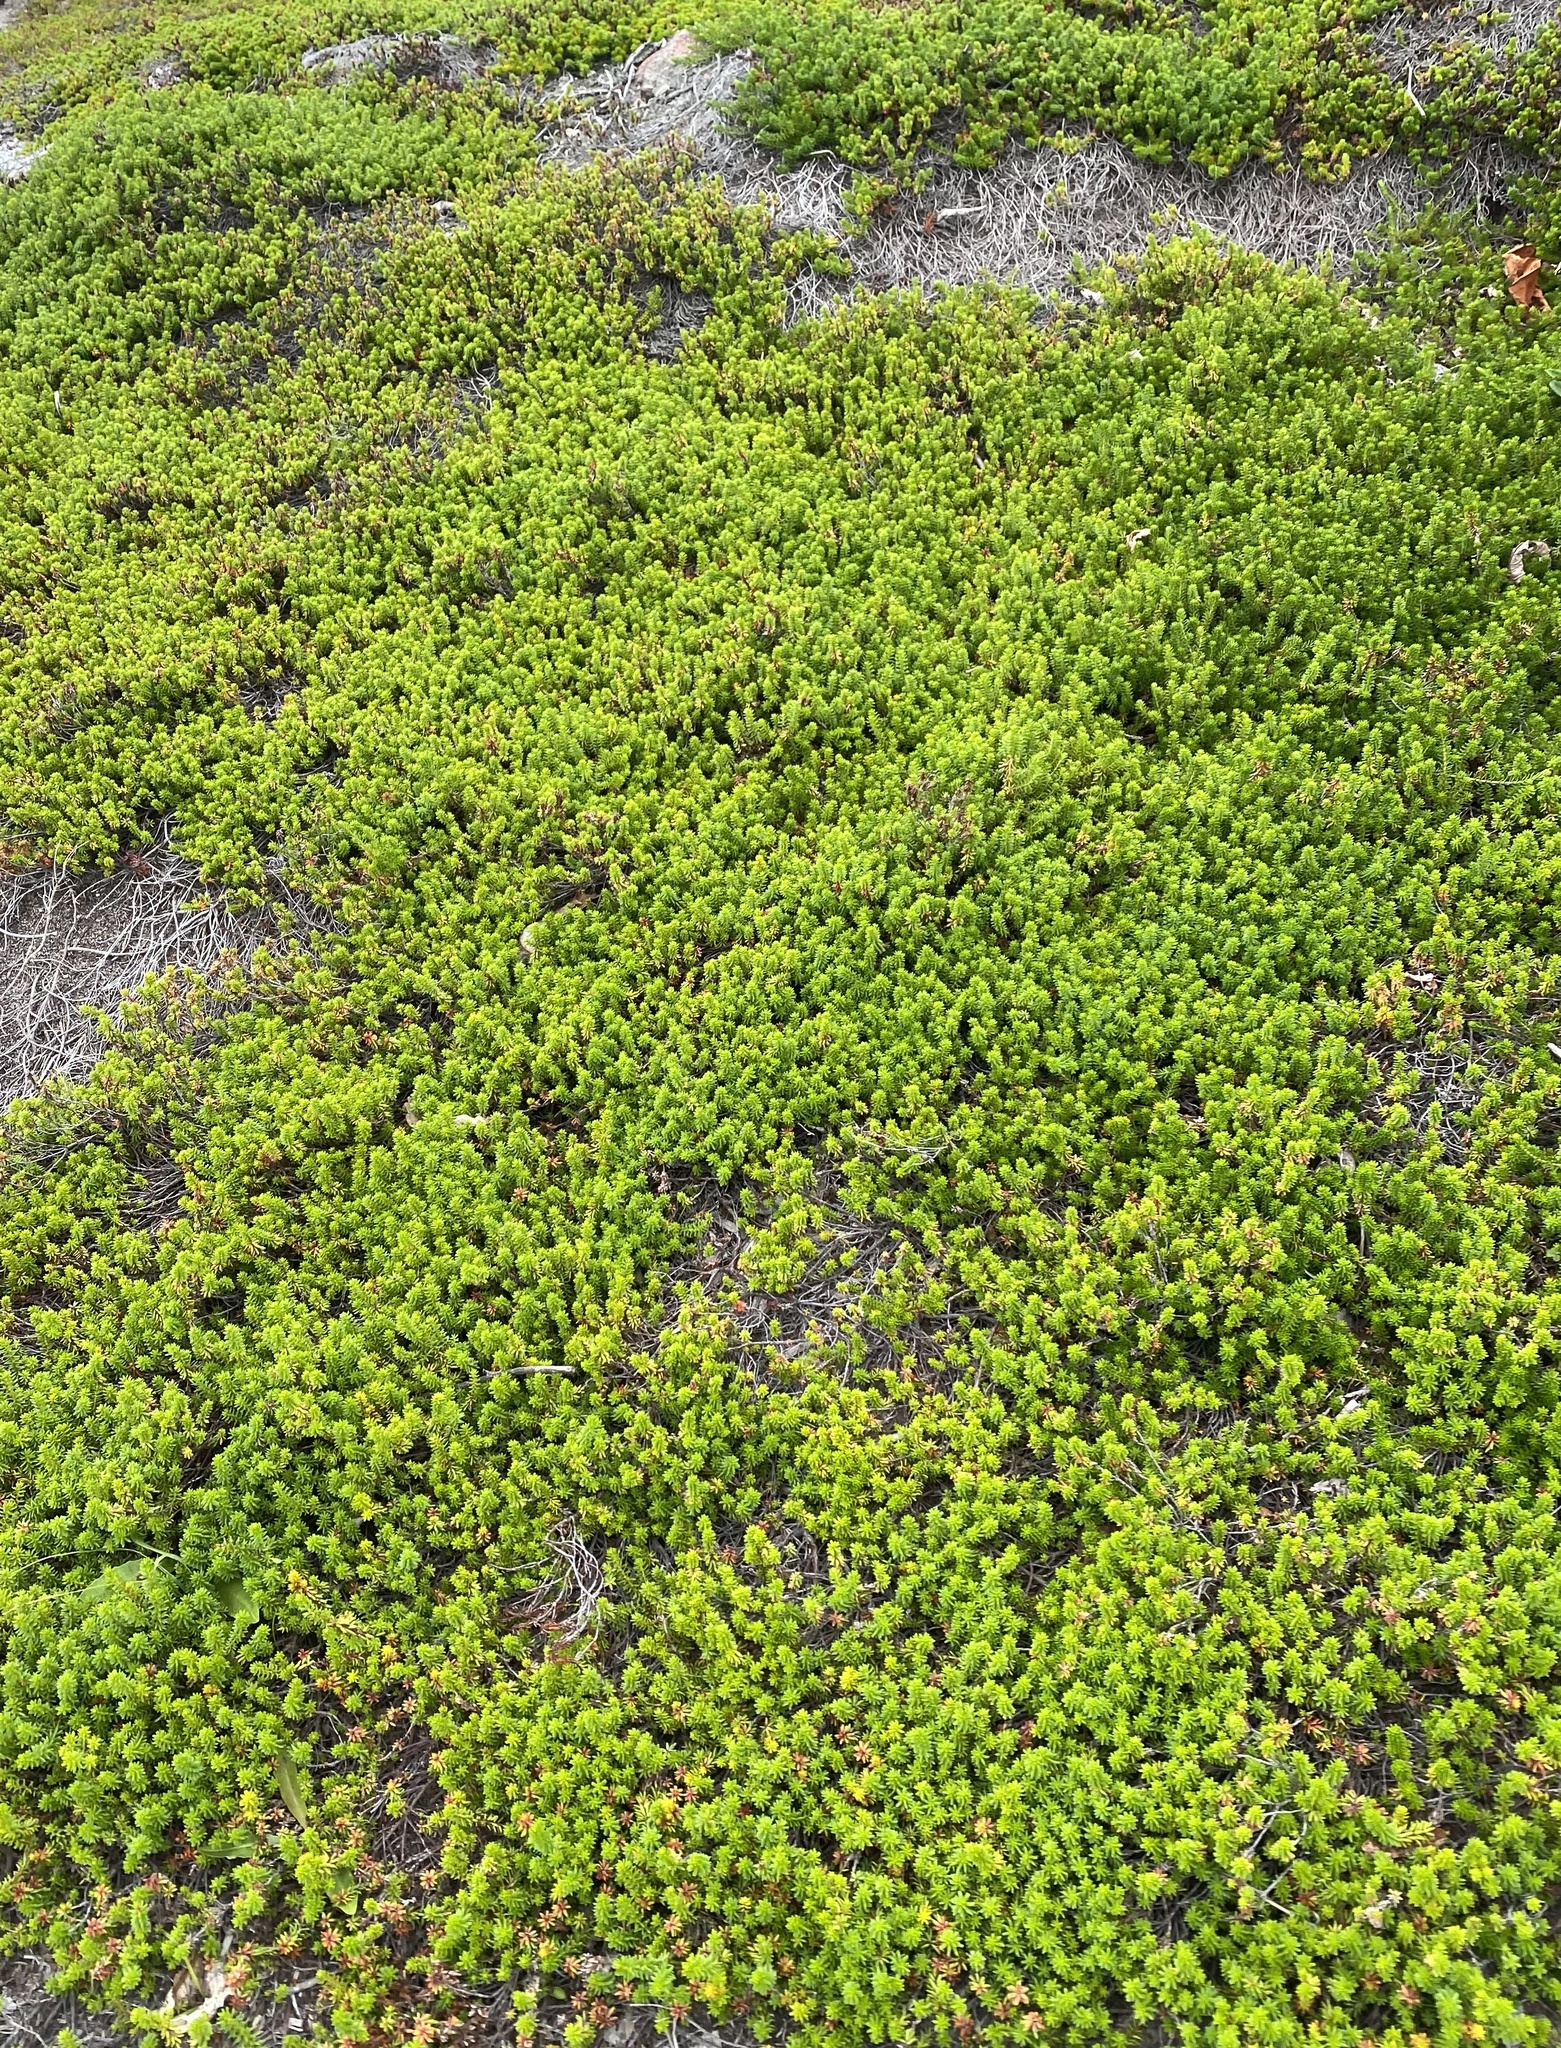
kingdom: Plantae
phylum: Tracheophyta
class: Magnoliopsida
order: Ericales
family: Ericaceae
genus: Empetrum
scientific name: Empetrum nigrum
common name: Black crowberry
